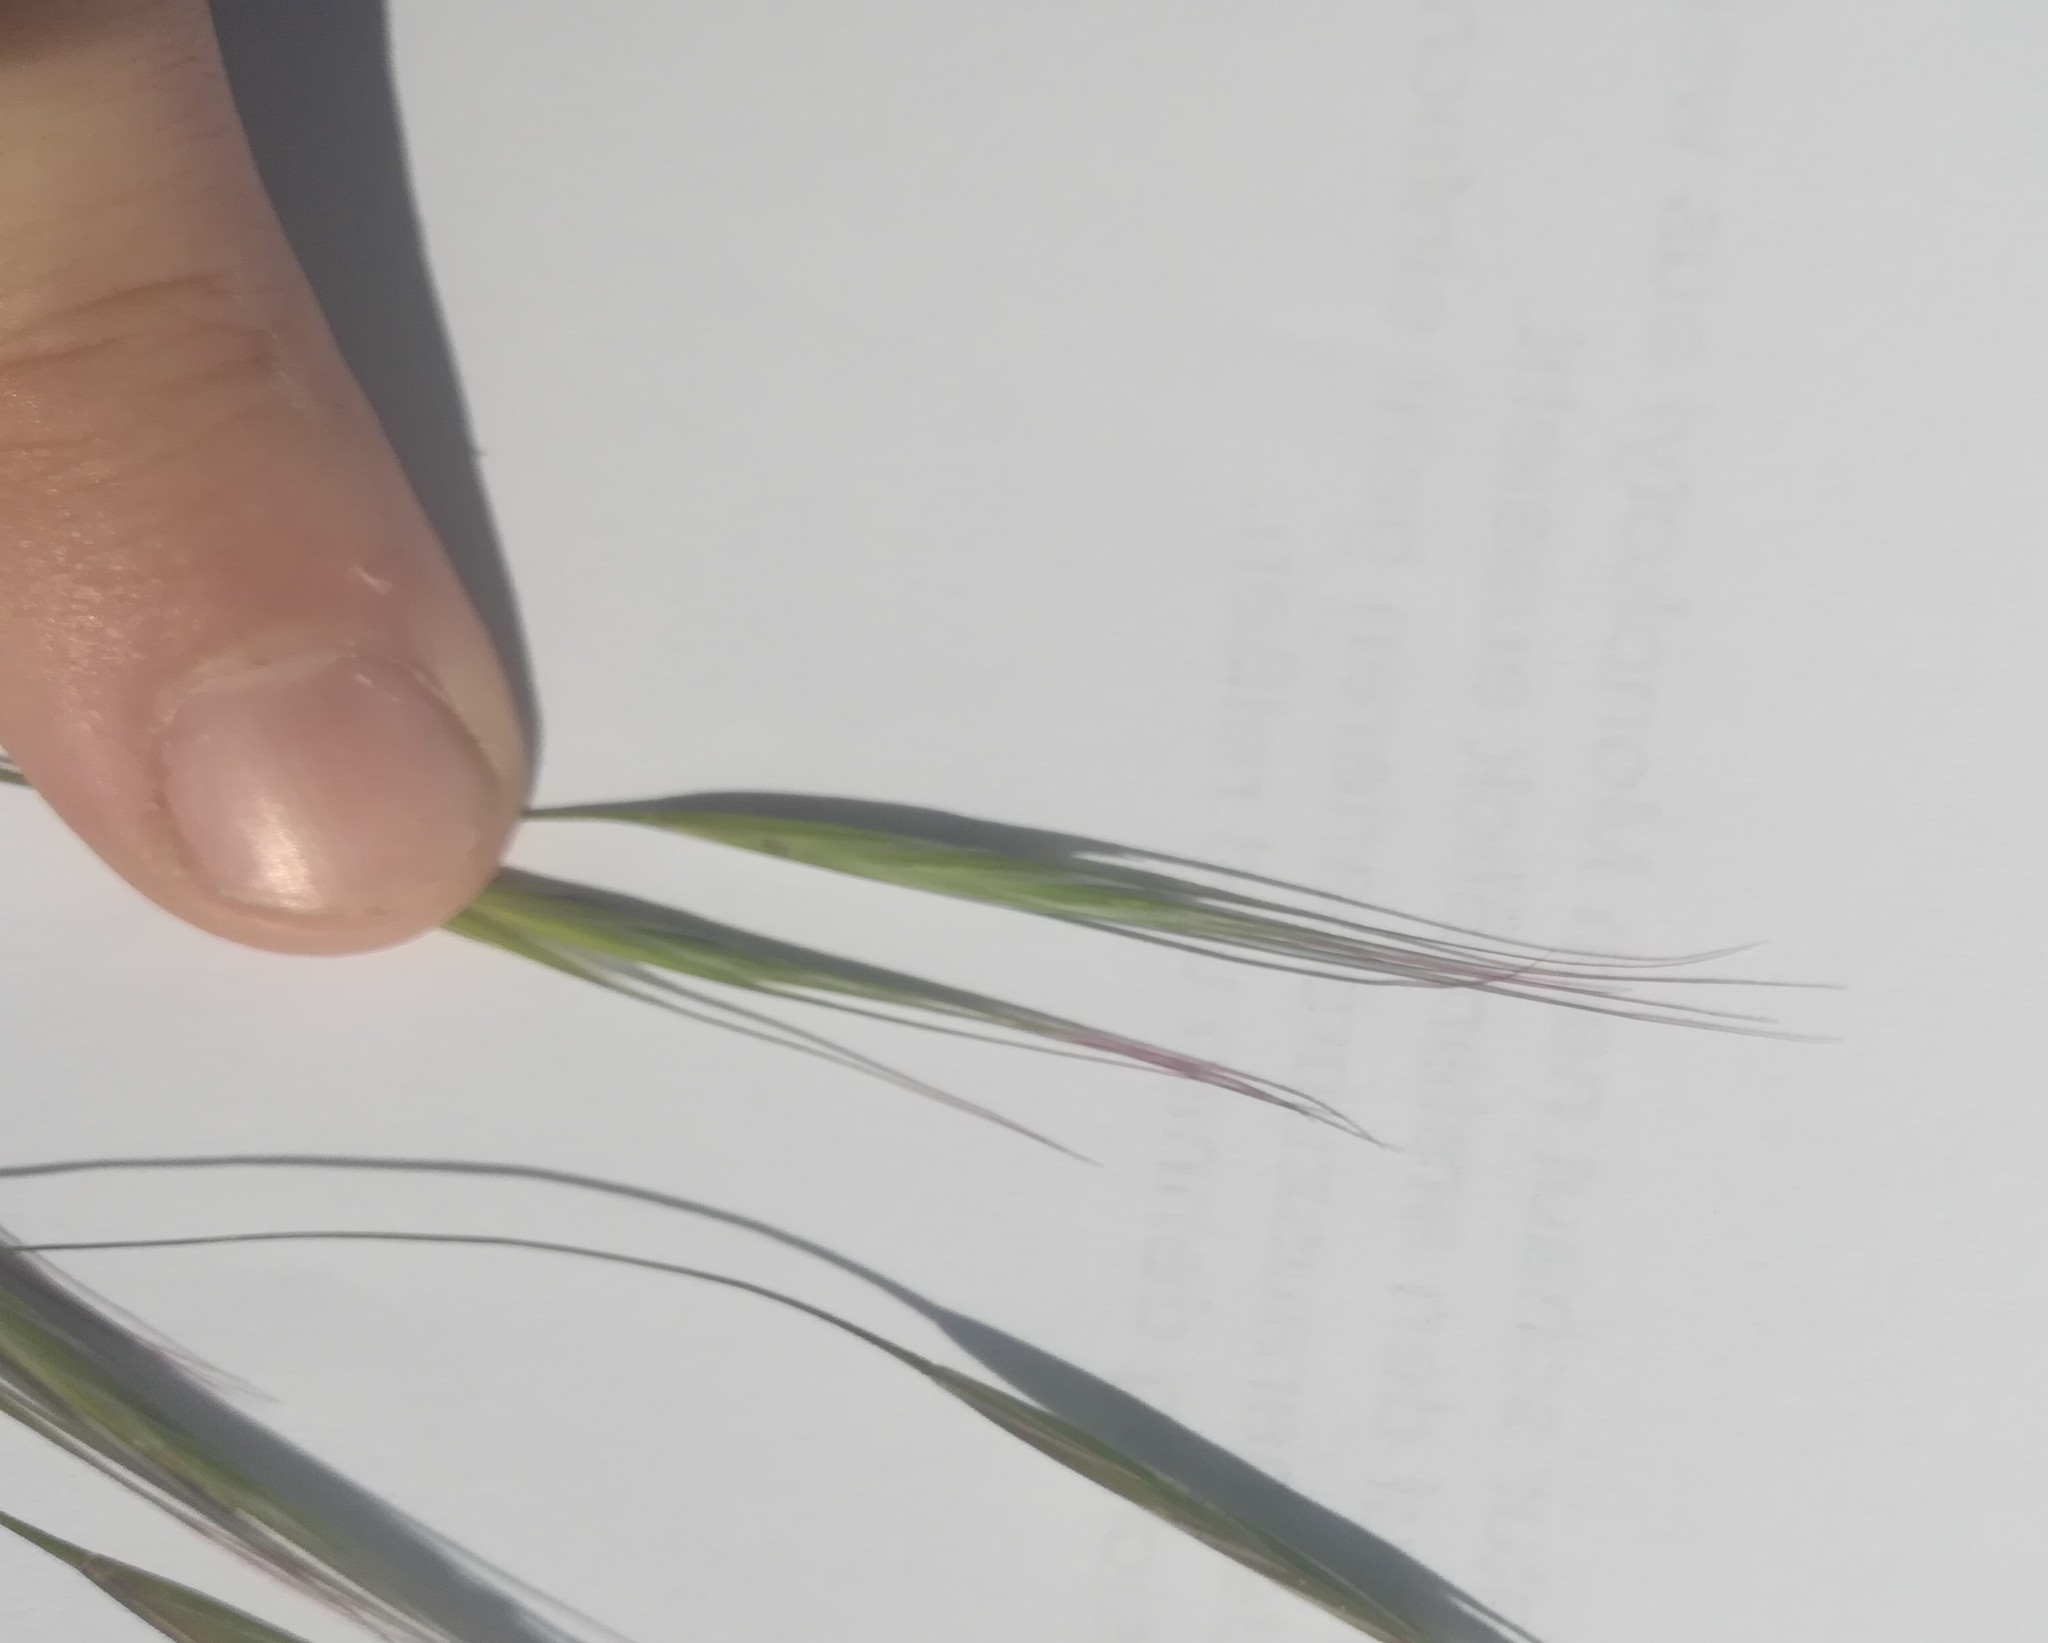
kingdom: Plantae
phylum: Tracheophyta
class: Liliopsida
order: Poales
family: Poaceae
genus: Bromus
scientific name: Bromus sterilis
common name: Poverty brome
